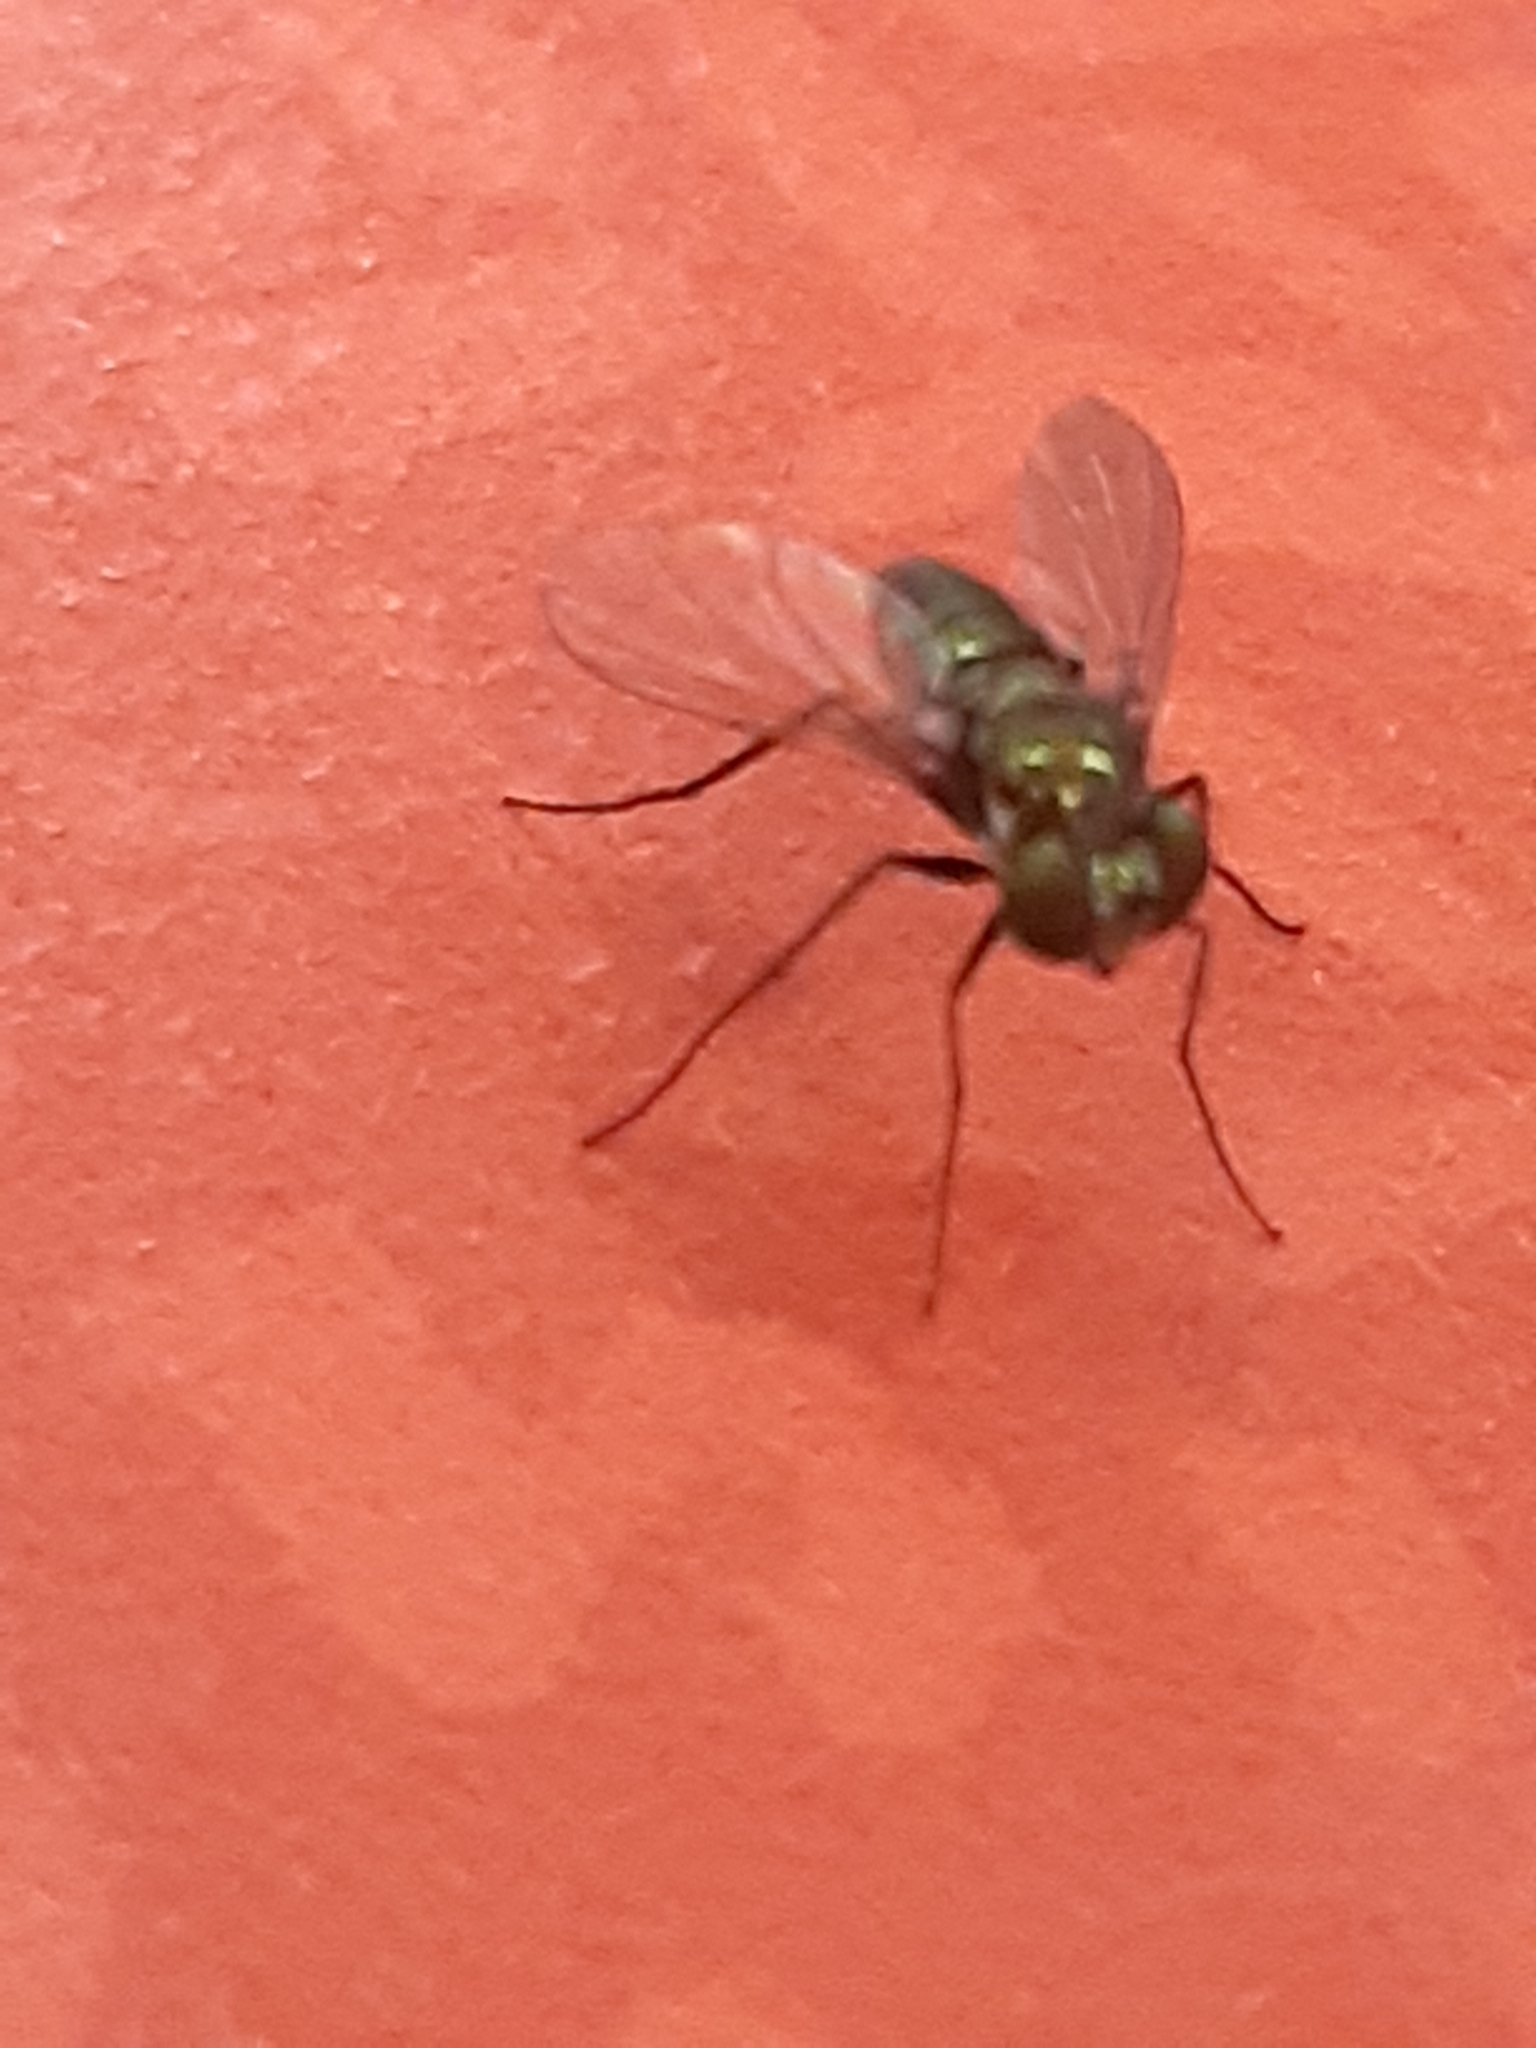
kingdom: Animalia
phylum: Arthropoda
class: Insecta
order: Diptera
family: Dolichopodidae
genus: Condylostylus
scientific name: Condylostylus longicornis
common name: Long-legged fly
